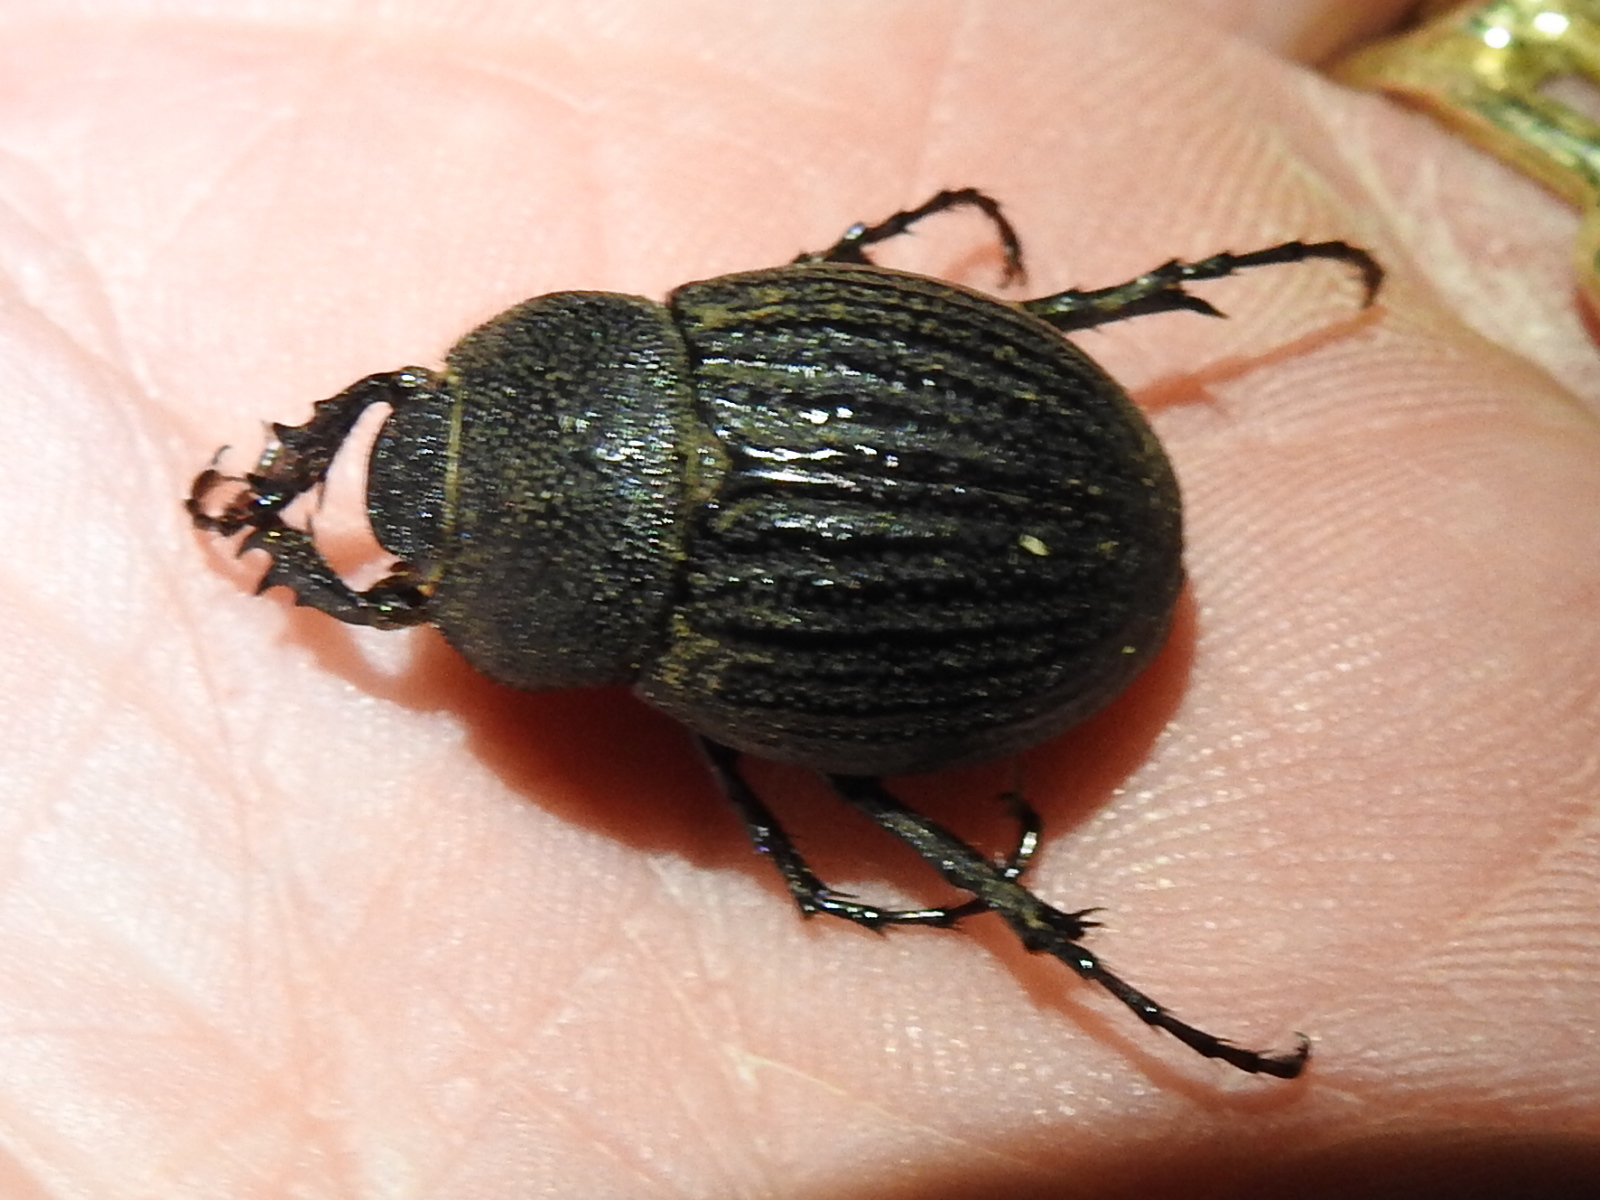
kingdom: Animalia
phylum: Arthropoda
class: Insecta
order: Coleoptera
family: Scarabaeidae
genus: Phyllophaga
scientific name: Phyllophaga cribrosa
